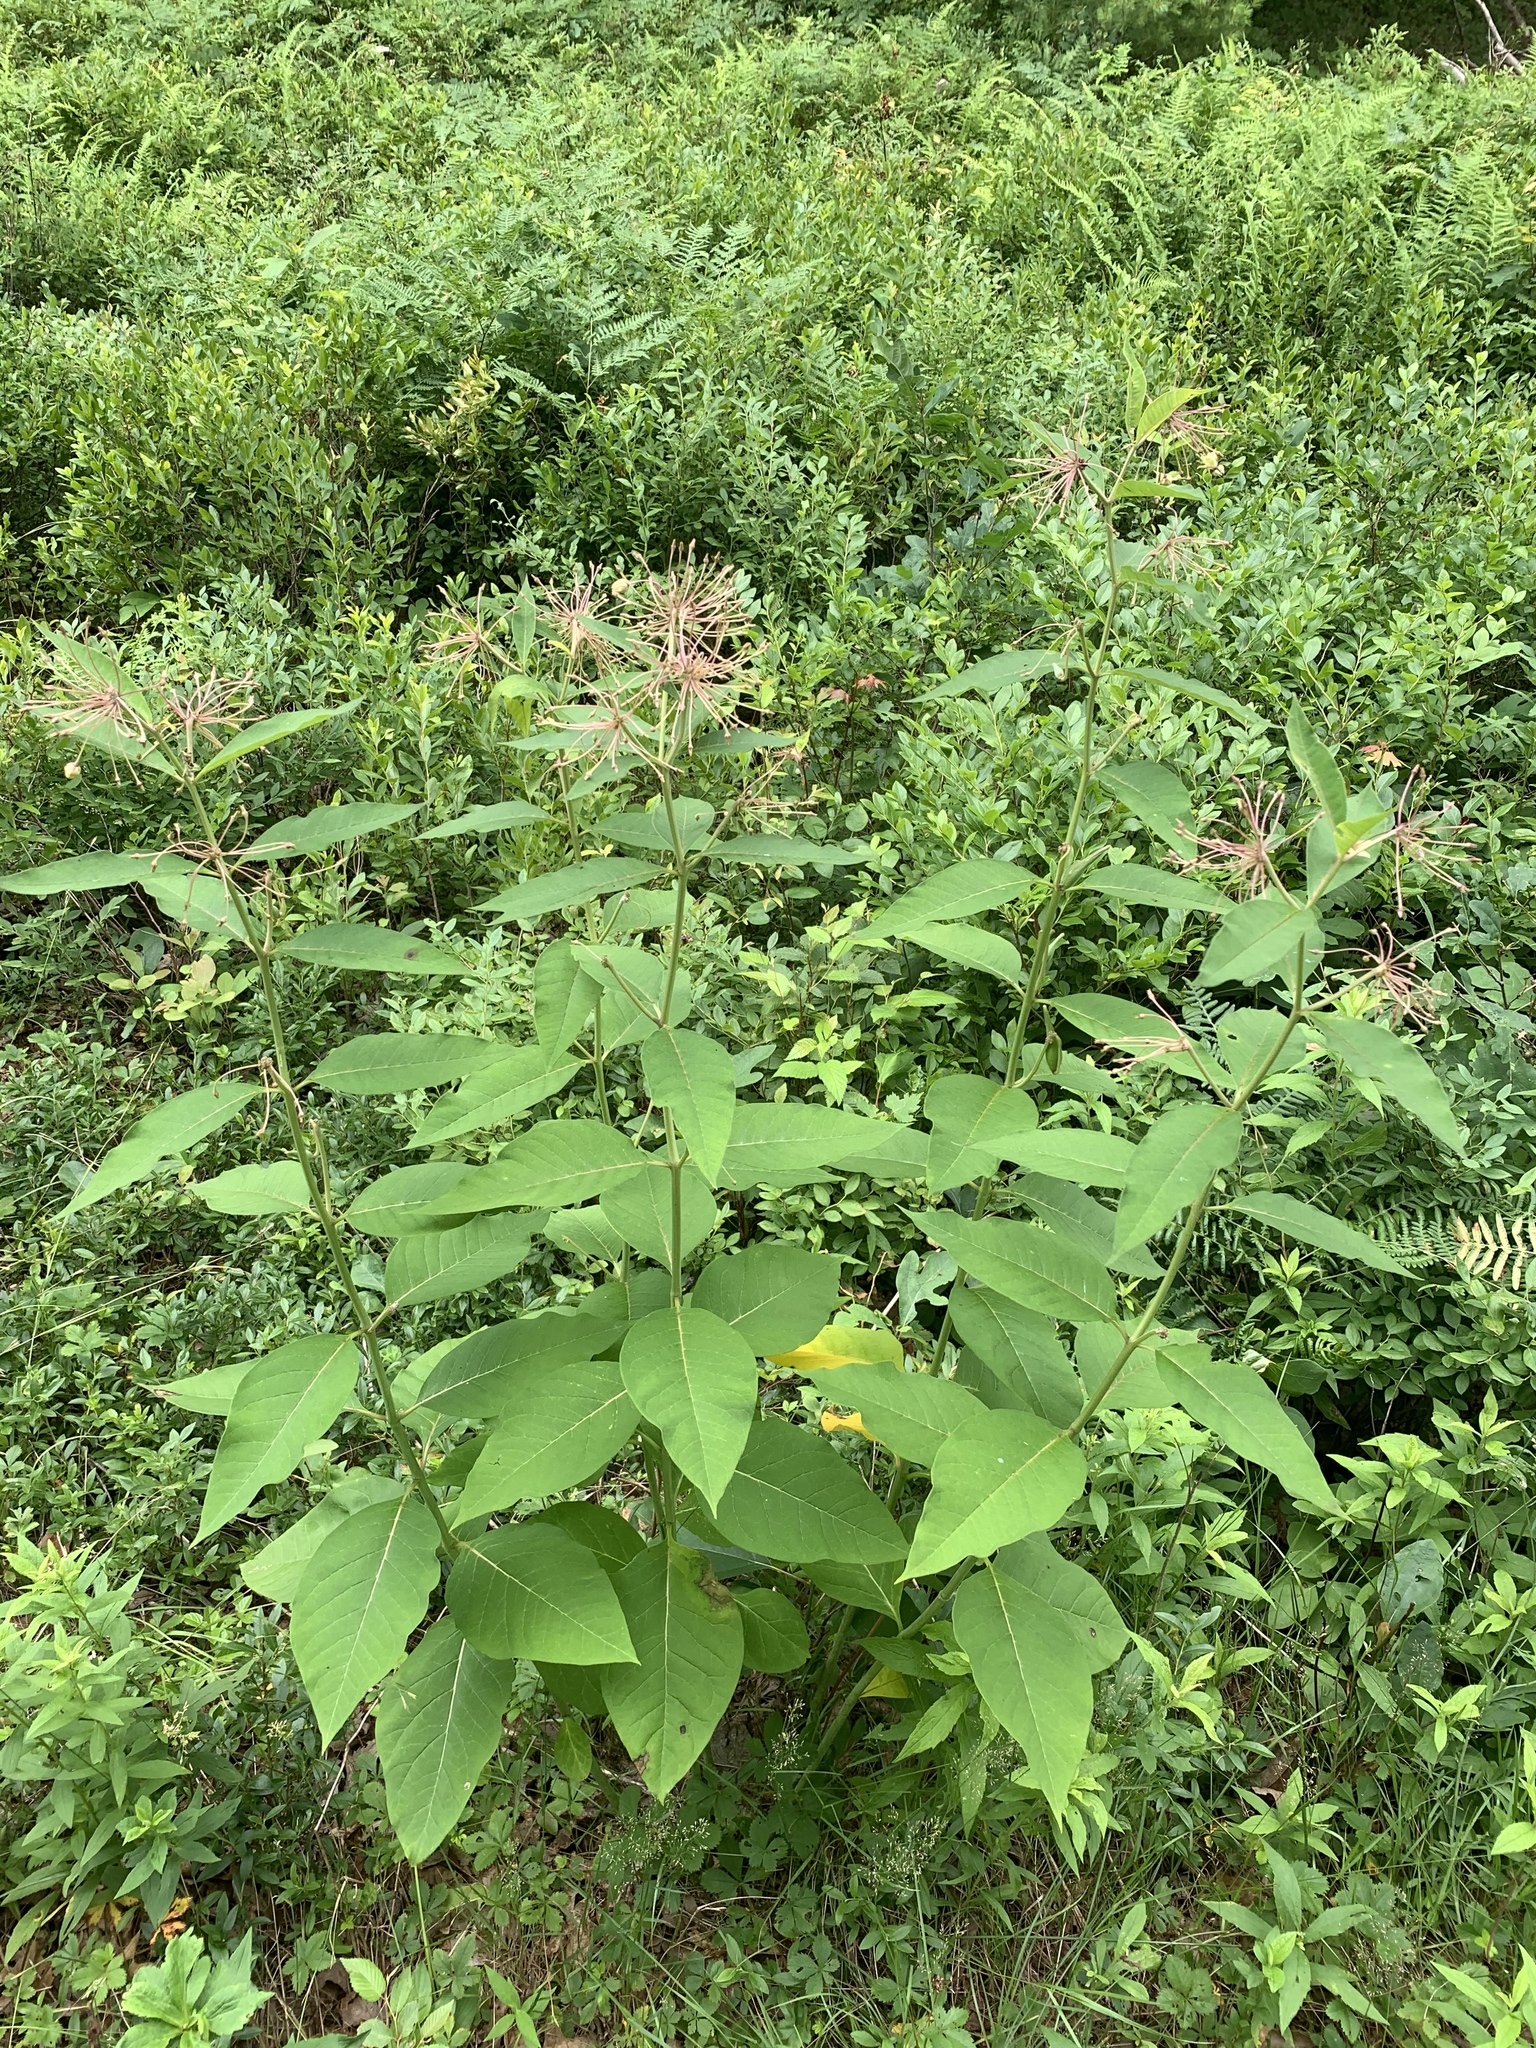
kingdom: Plantae
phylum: Tracheophyta
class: Magnoliopsida
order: Gentianales
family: Apocynaceae
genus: Asclepias
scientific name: Asclepias exaltata
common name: Poke milkweed
